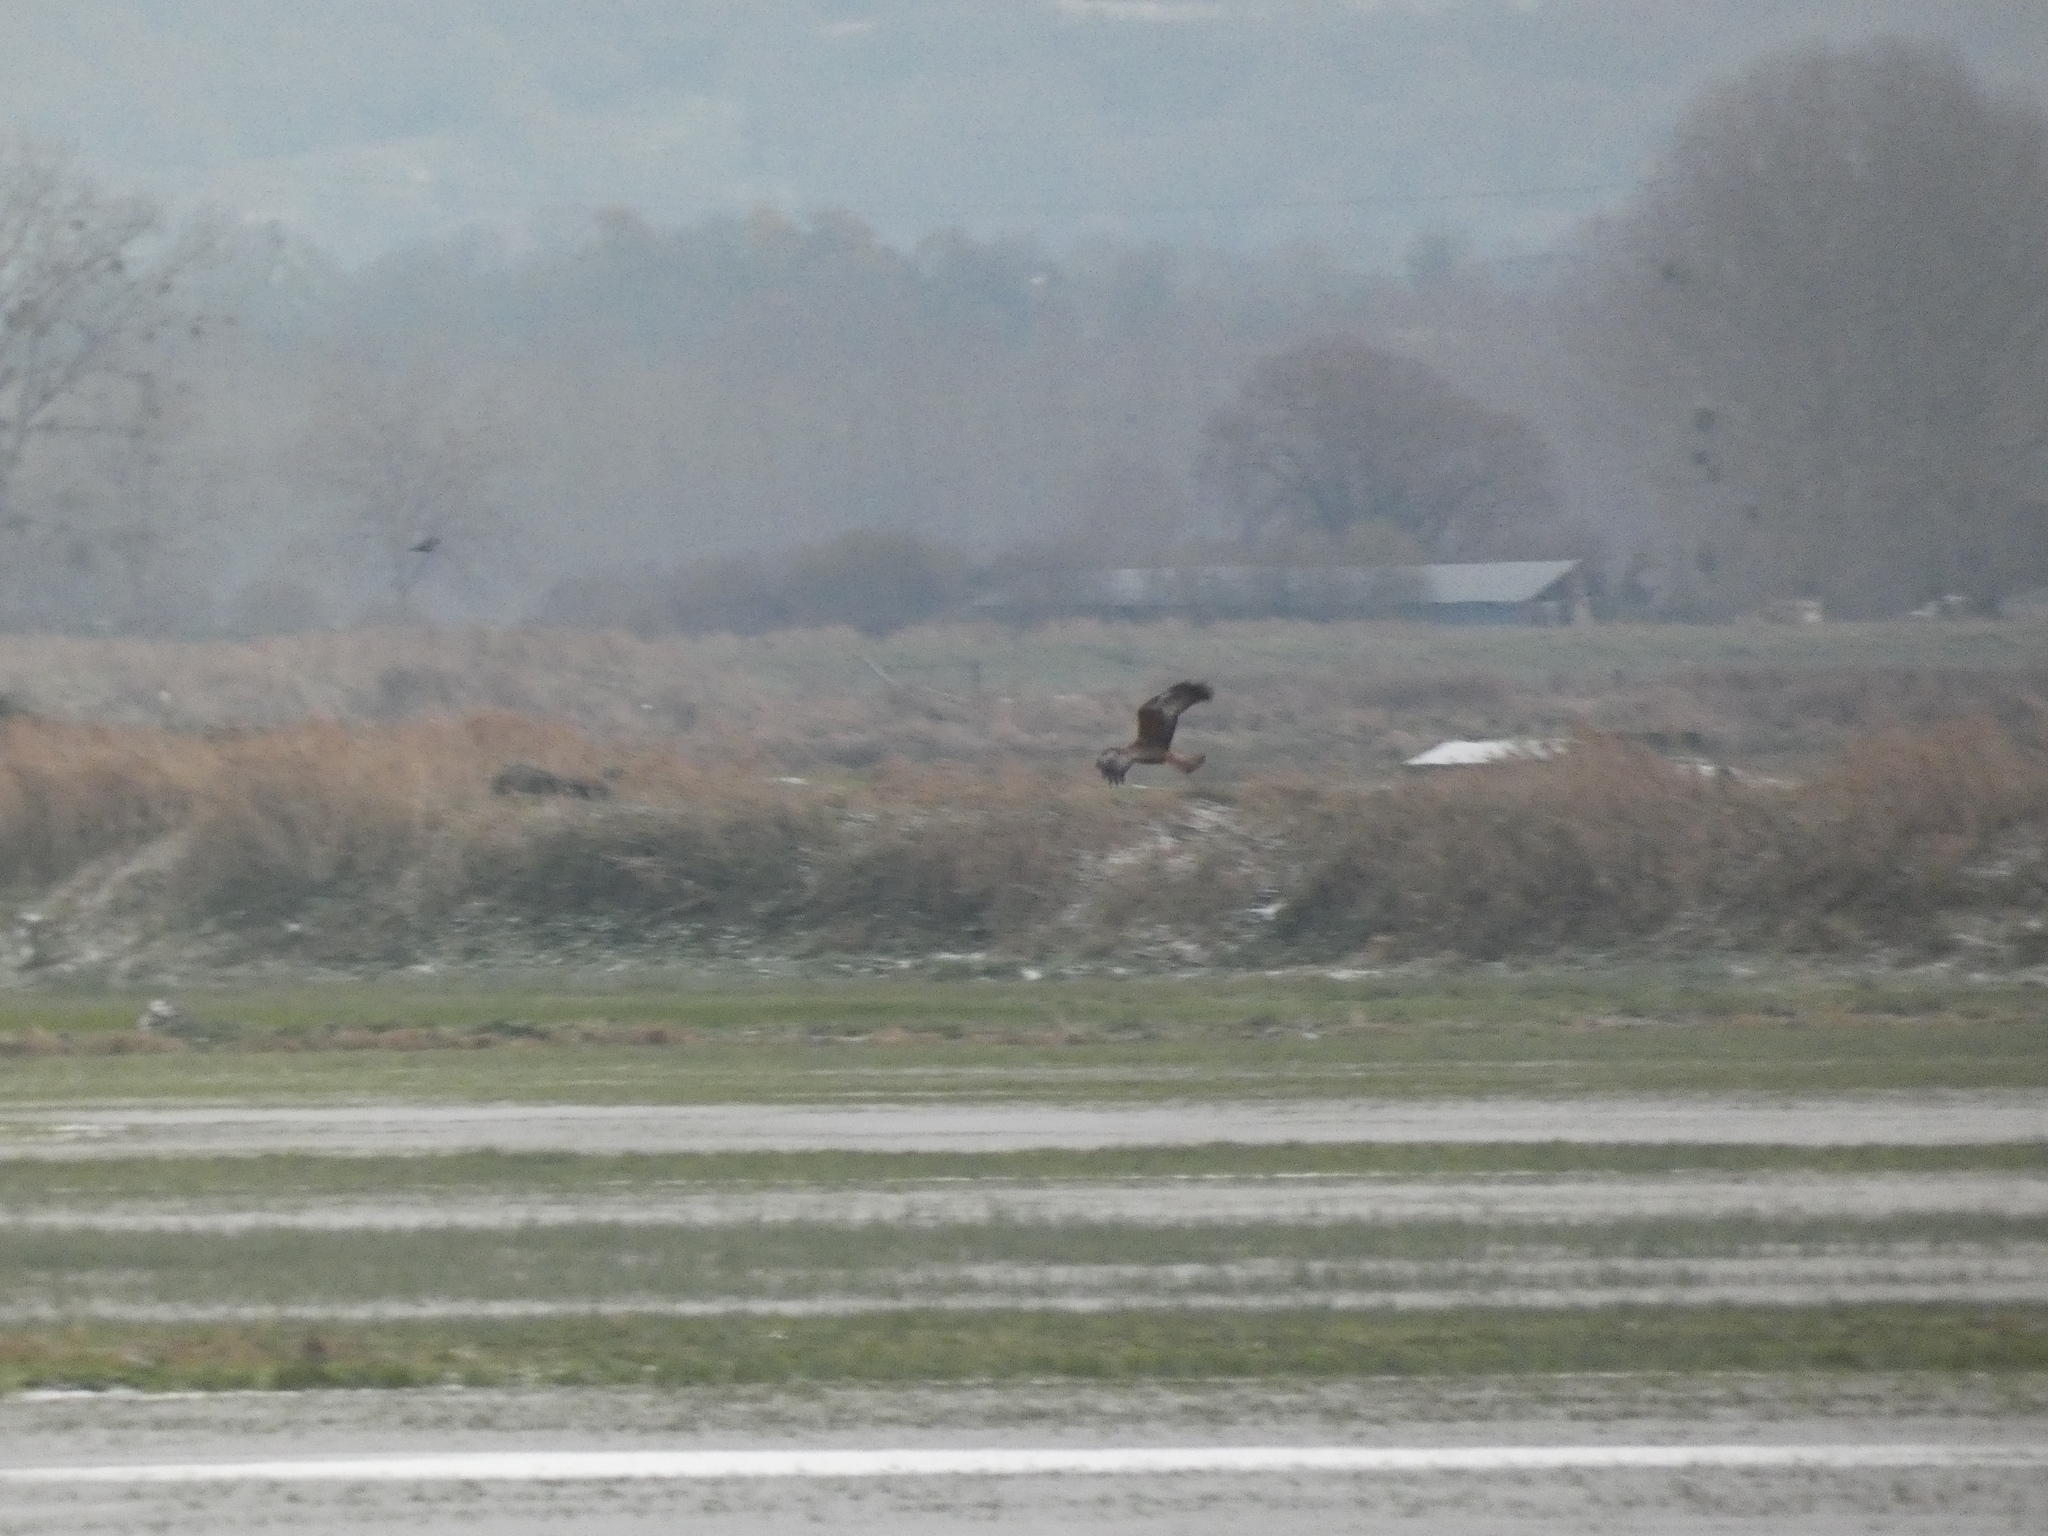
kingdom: Animalia
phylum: Chordata
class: Aves
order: Accipitriformes
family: Accipitridae
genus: Circus
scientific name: Circus aeruginosus
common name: Western marsh harrier
